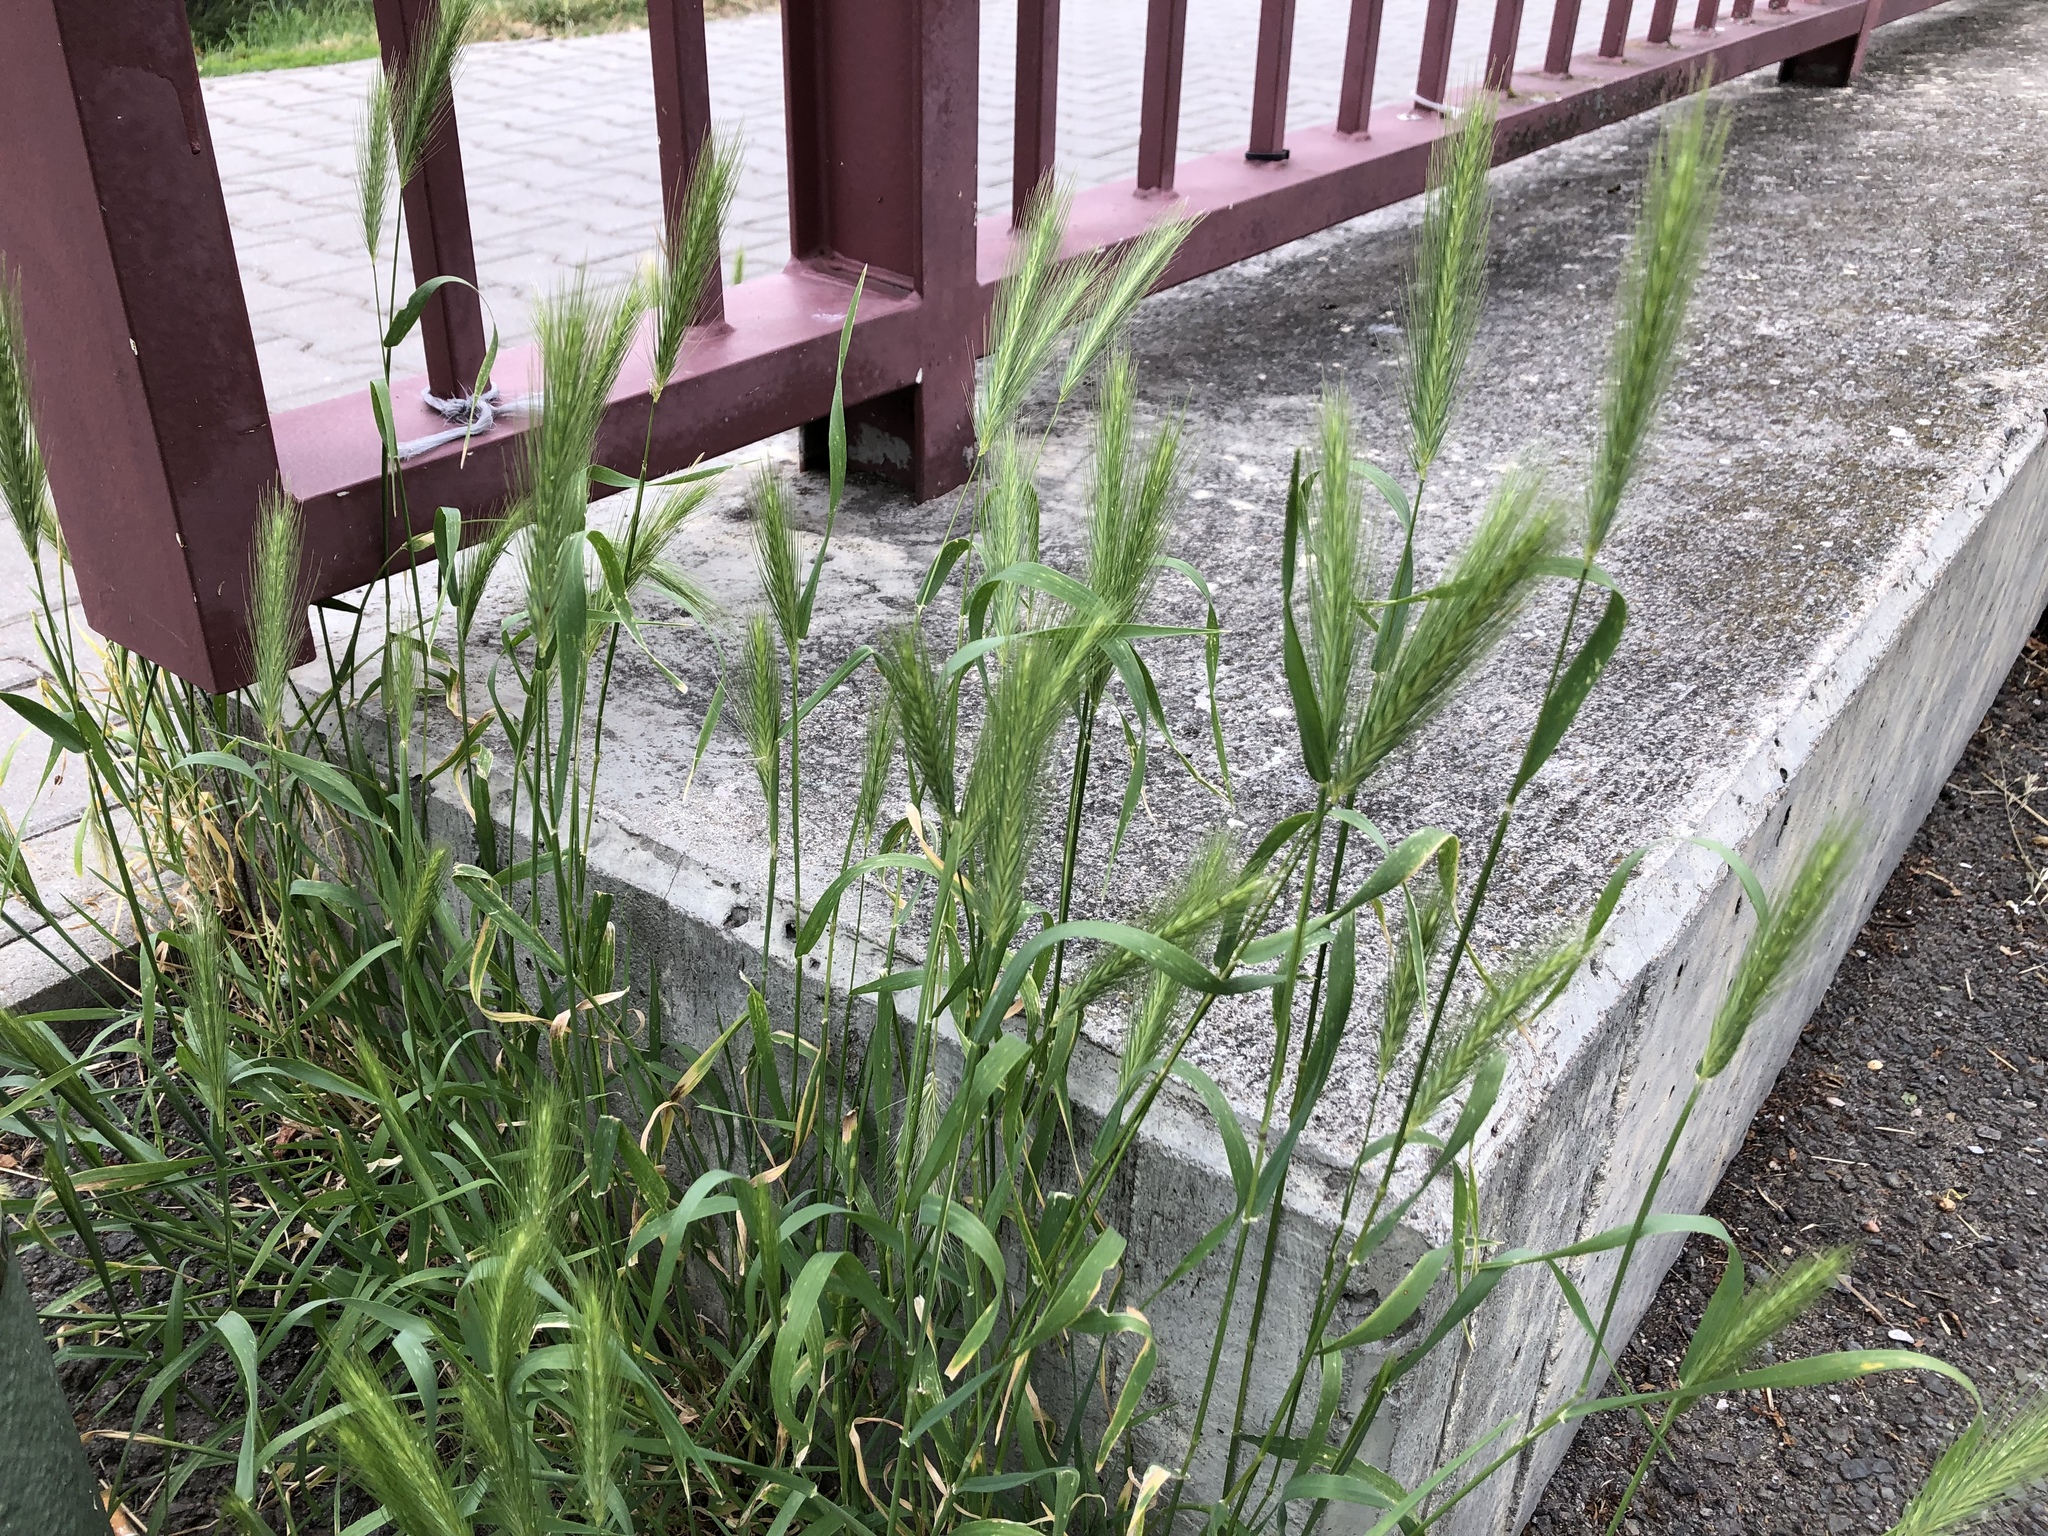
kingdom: Plantae
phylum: Tracheophyta
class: Liliopsida
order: Poales
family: Poaceae
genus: Hordeum
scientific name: Hordeum murinum
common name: Wall barley
